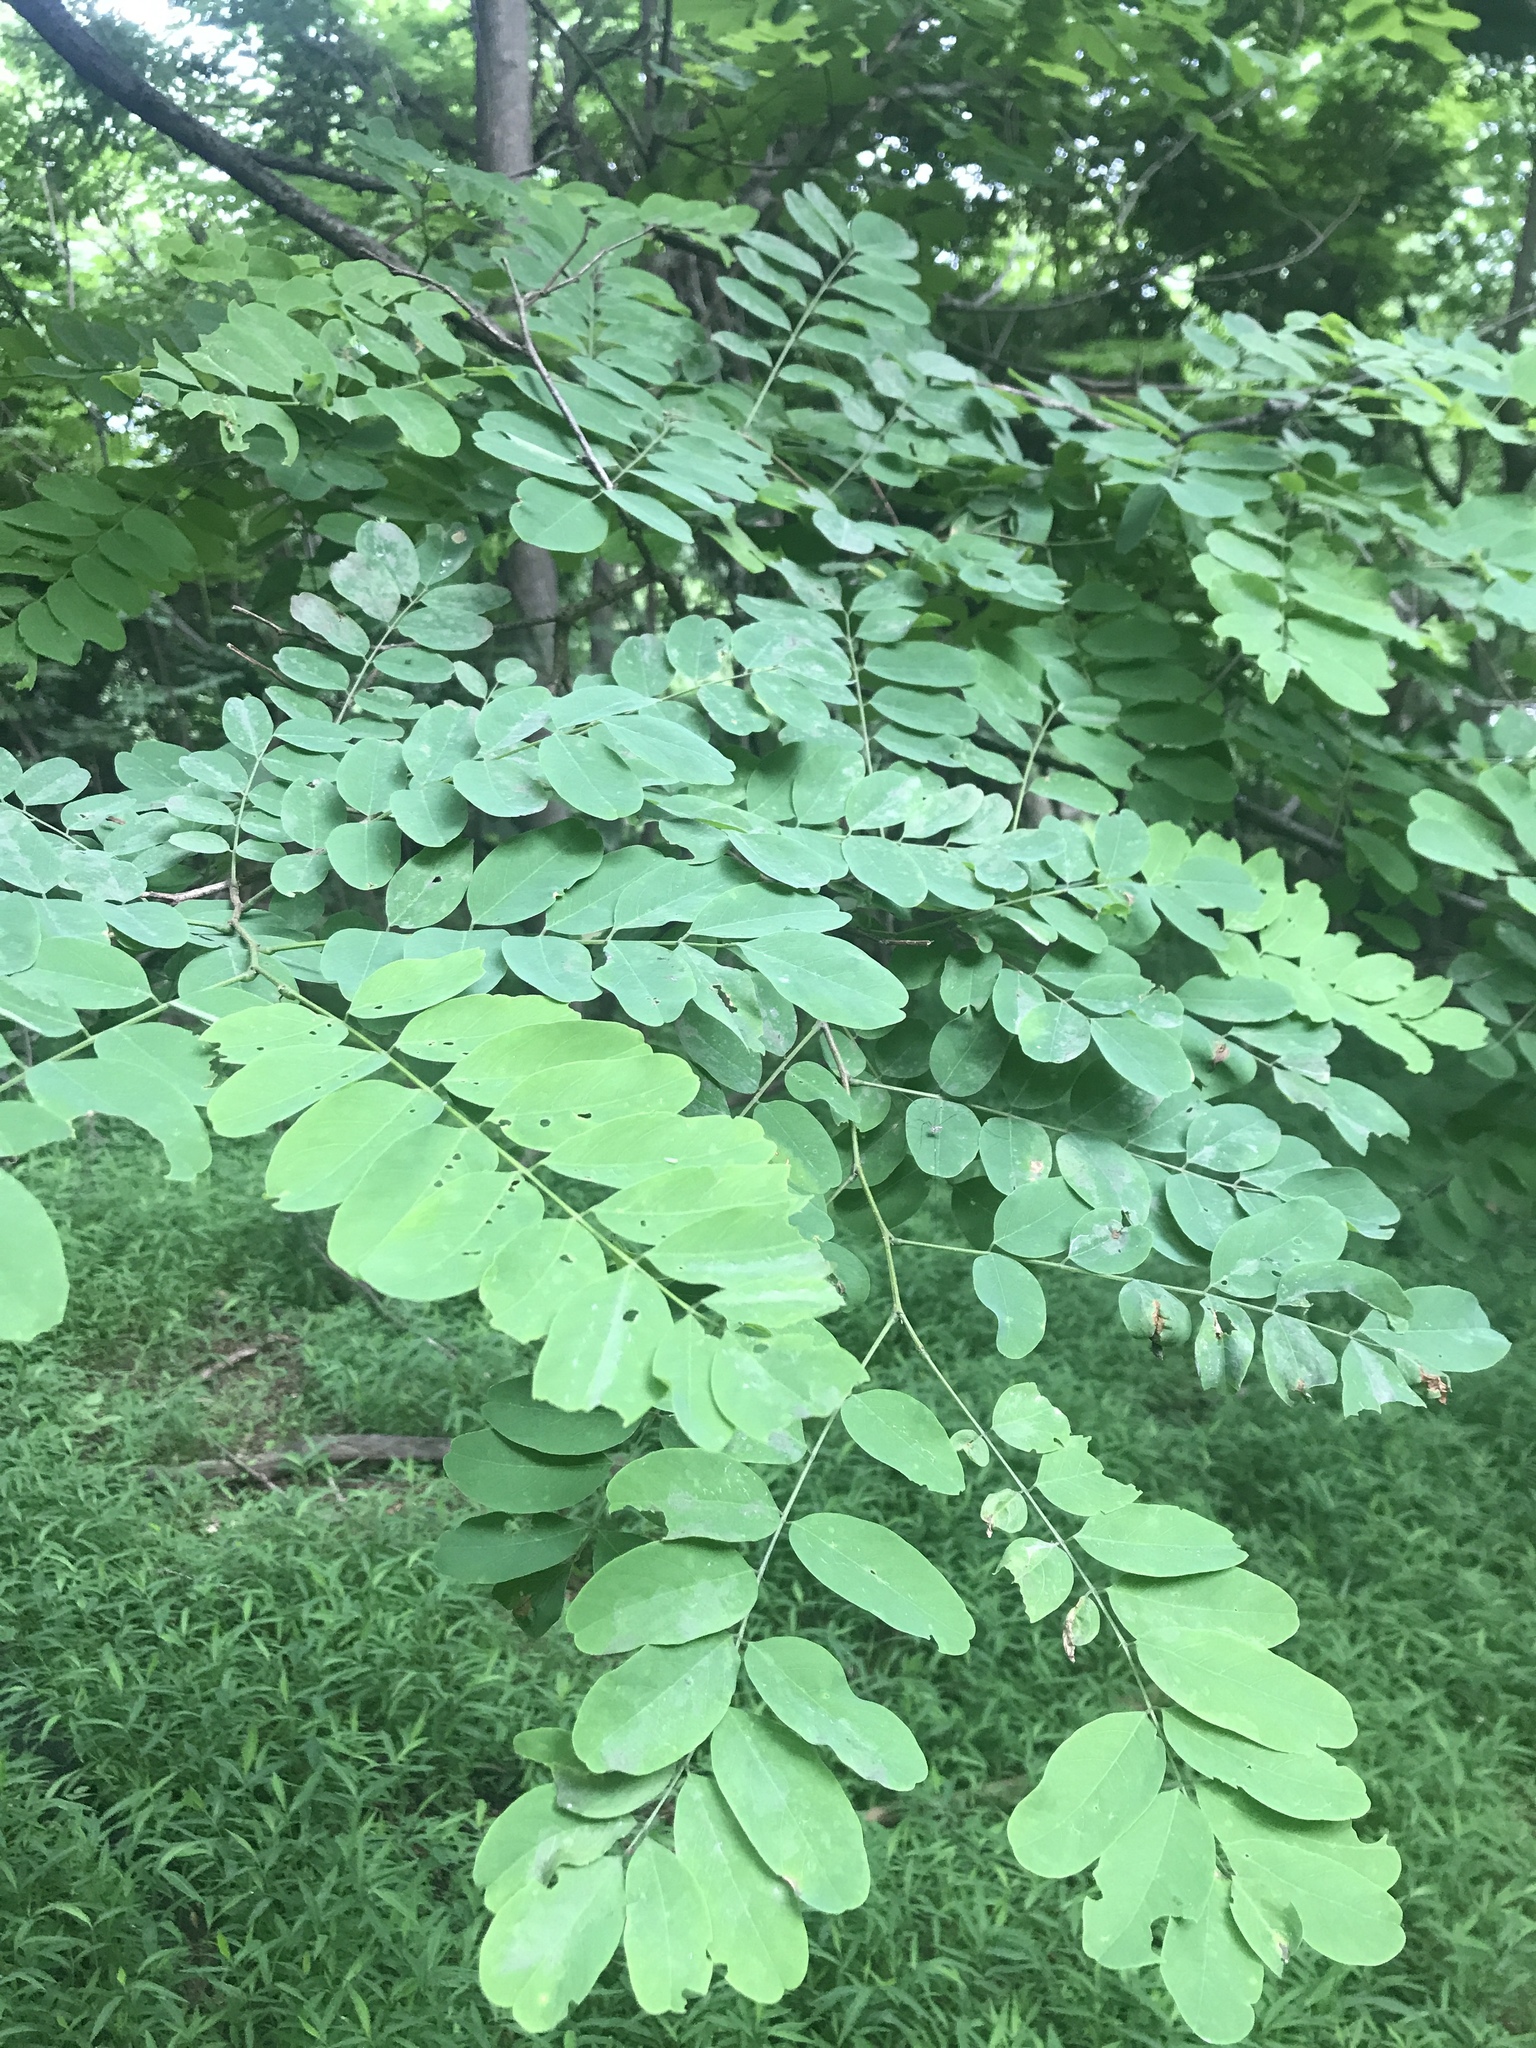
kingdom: Plantae
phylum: Tracheophyta
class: Magnoliopsida
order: Fabales
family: Fabaceae
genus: Robinia
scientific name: Robinia pseudoacacia
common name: Black locust
